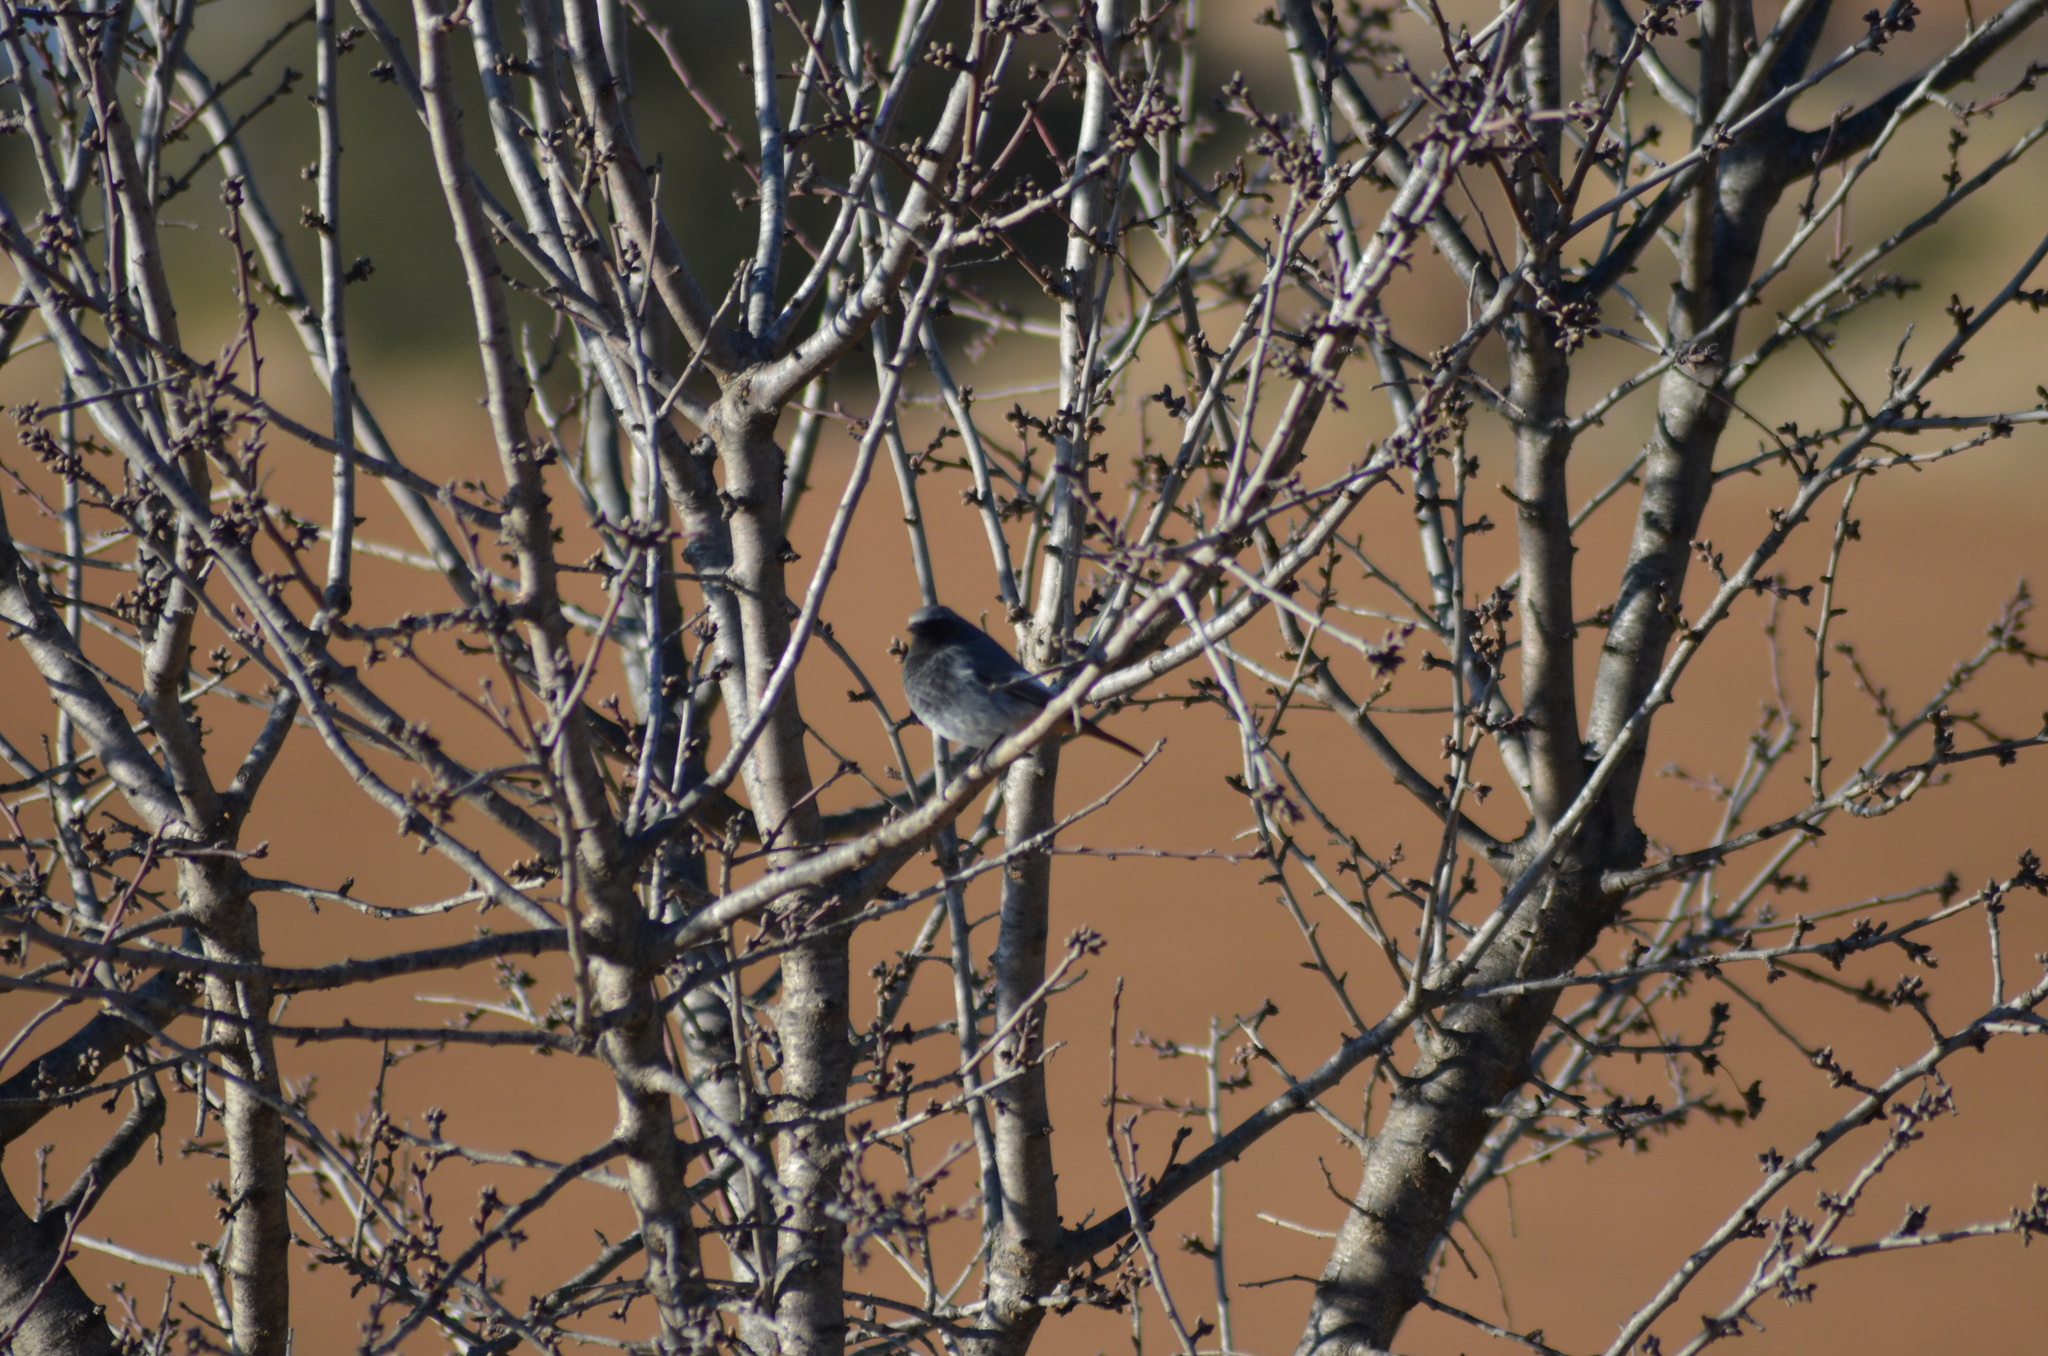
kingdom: Animalia
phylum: Chordata
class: Aves
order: Passeriformes
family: Muscicapidae
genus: Phoenicurus
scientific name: Phoenicurus ochruros
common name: Black redstart
